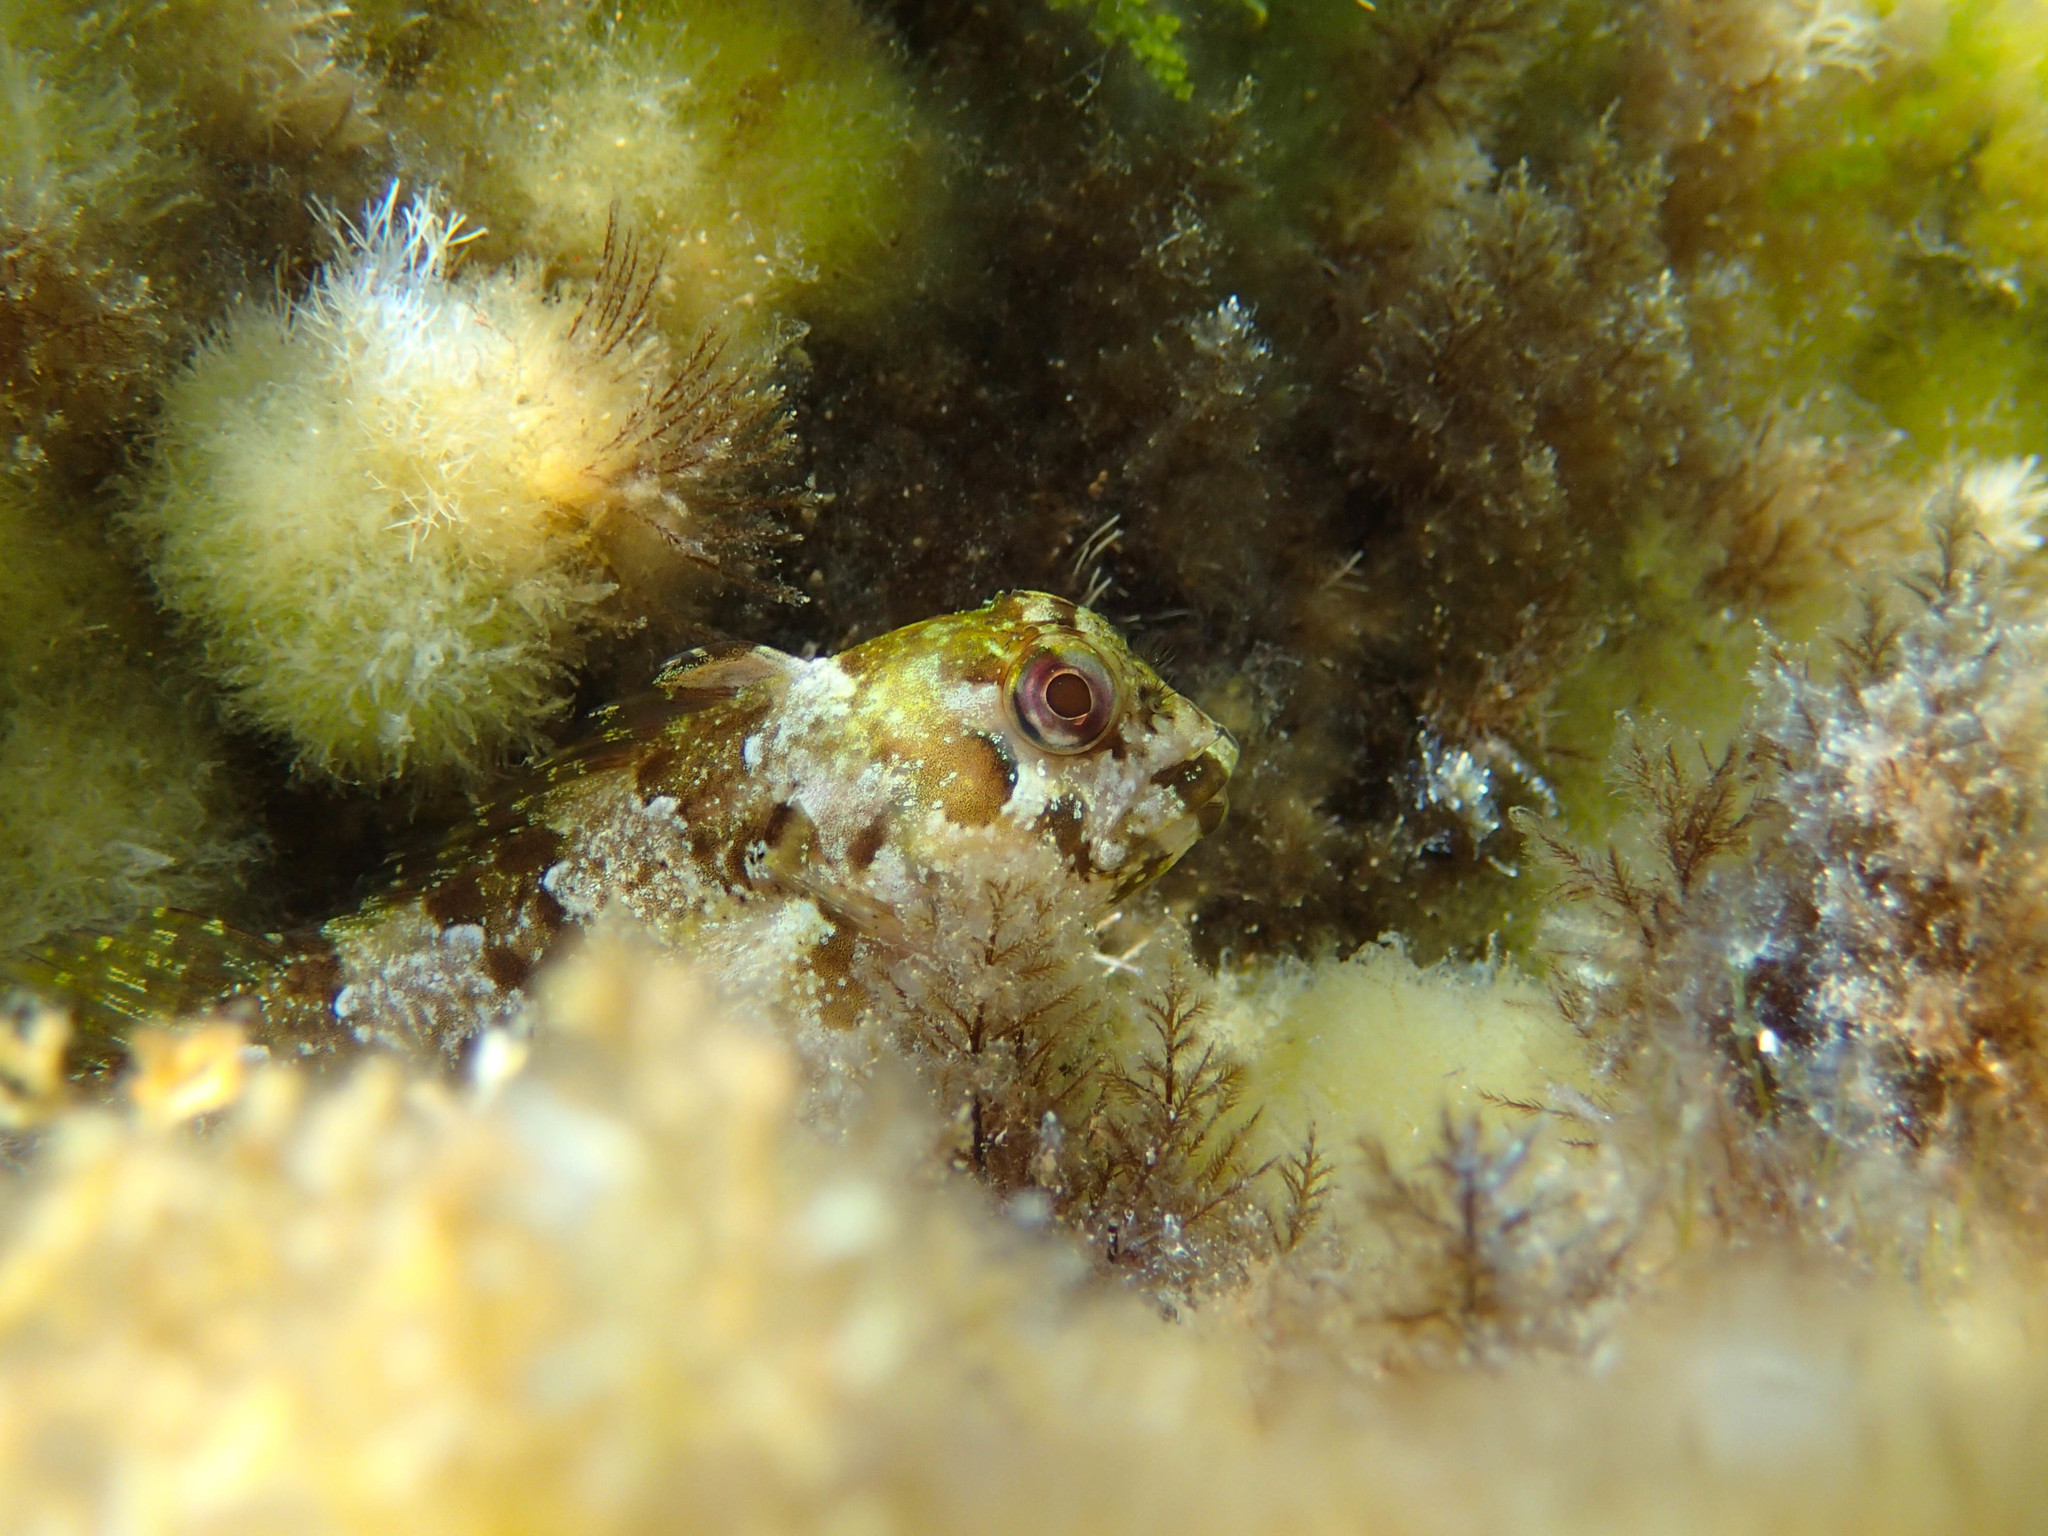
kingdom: Animalia
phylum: Chordata
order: Perciformes
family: Blenniidae
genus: Lipophrys
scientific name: Lipophrys trigloides
